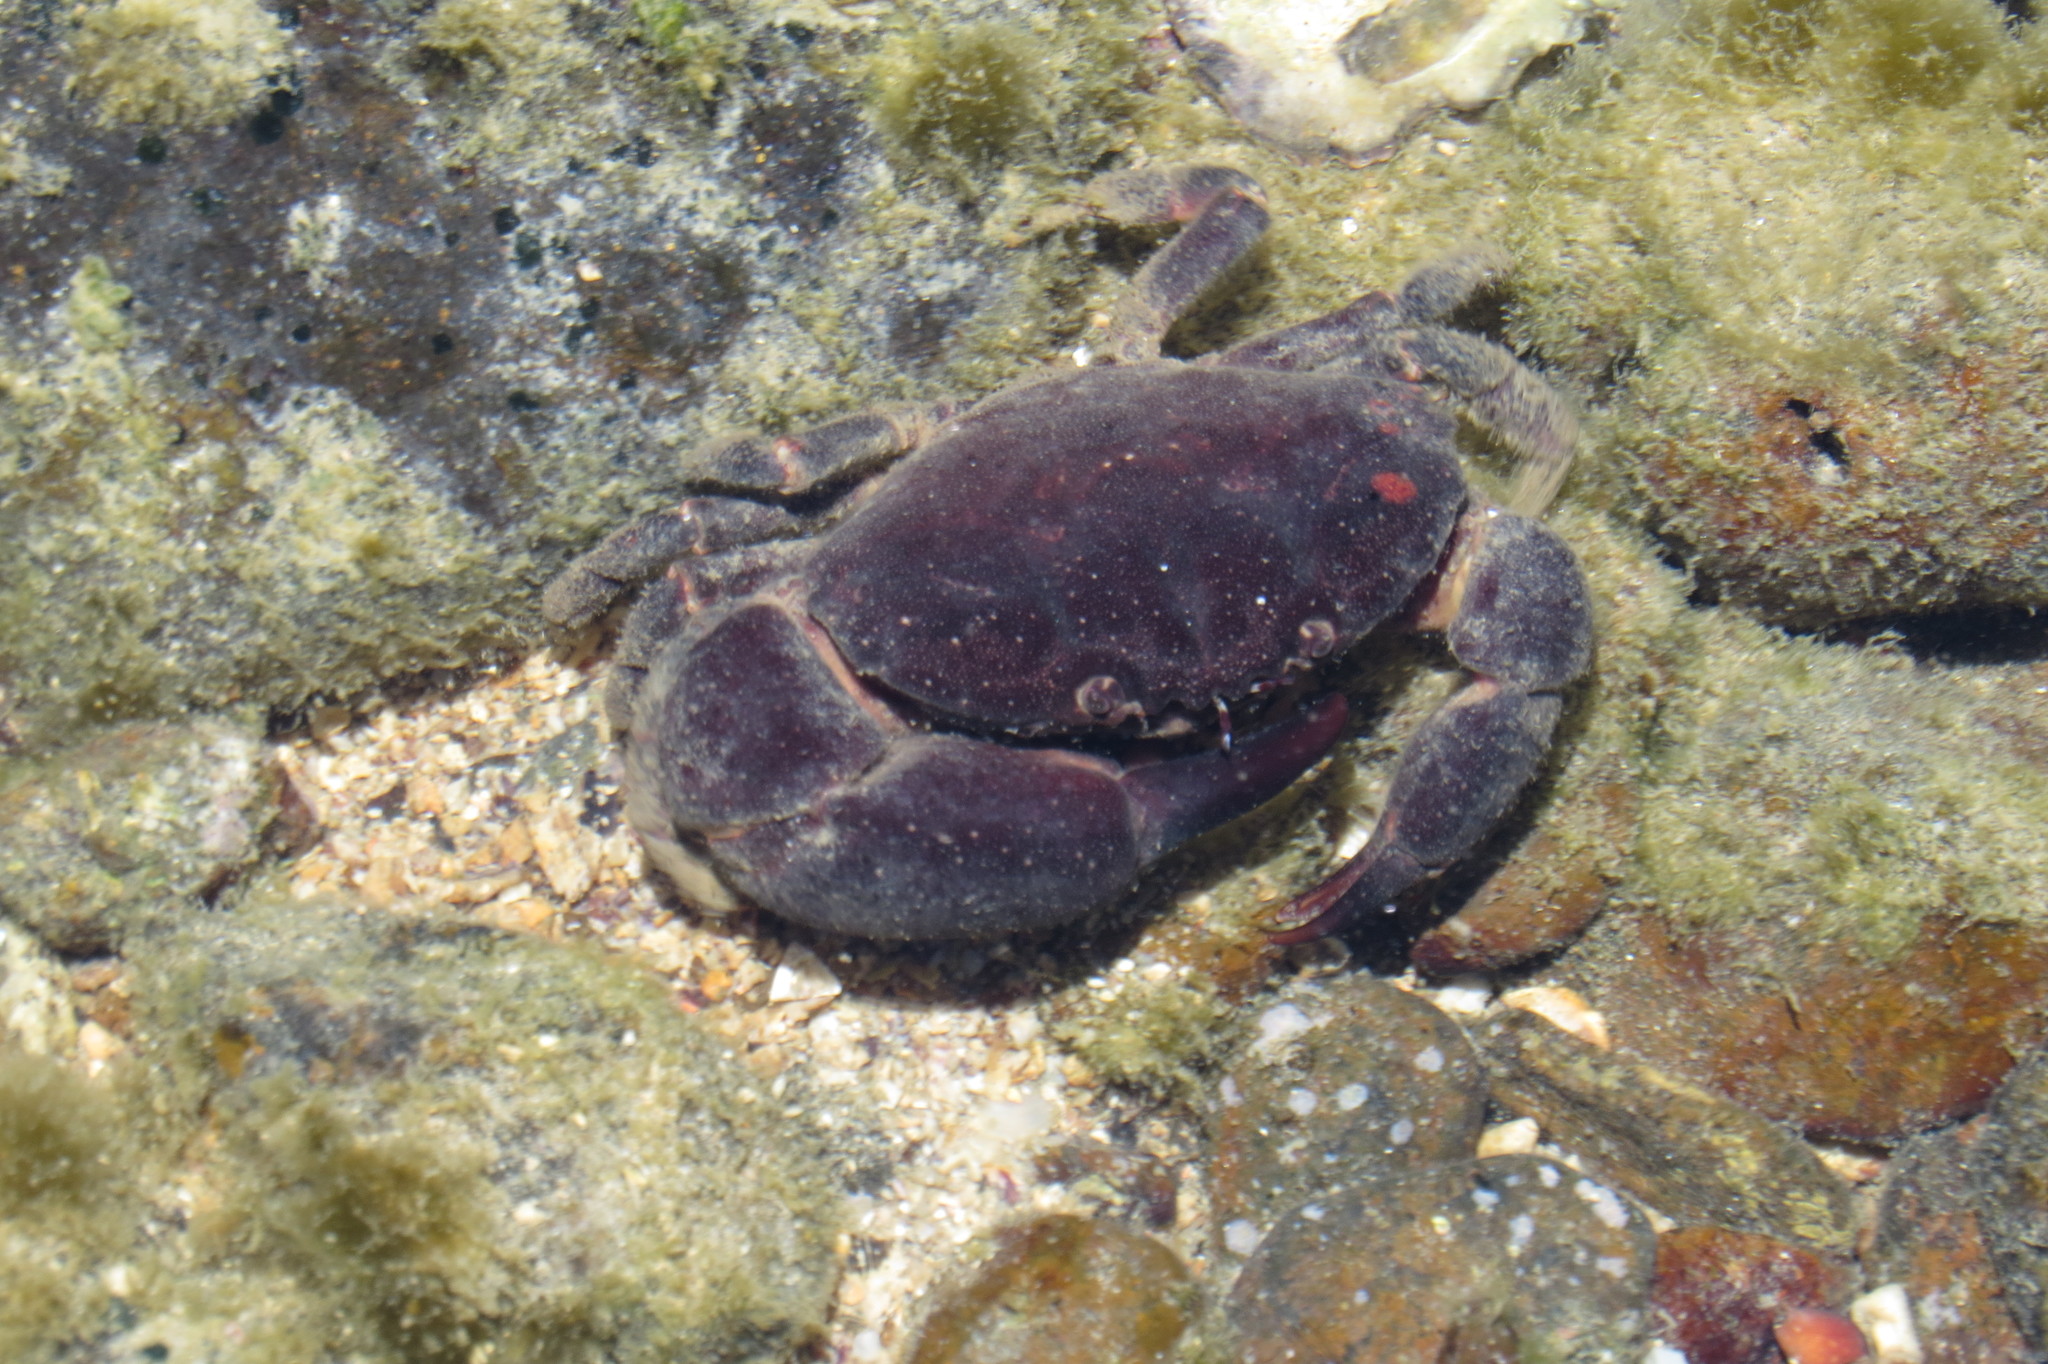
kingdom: Animalia
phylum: Arthropoda
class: Malacostraca
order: Decapoda
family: Oziidae
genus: Ozius
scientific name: Ozius truncatus
